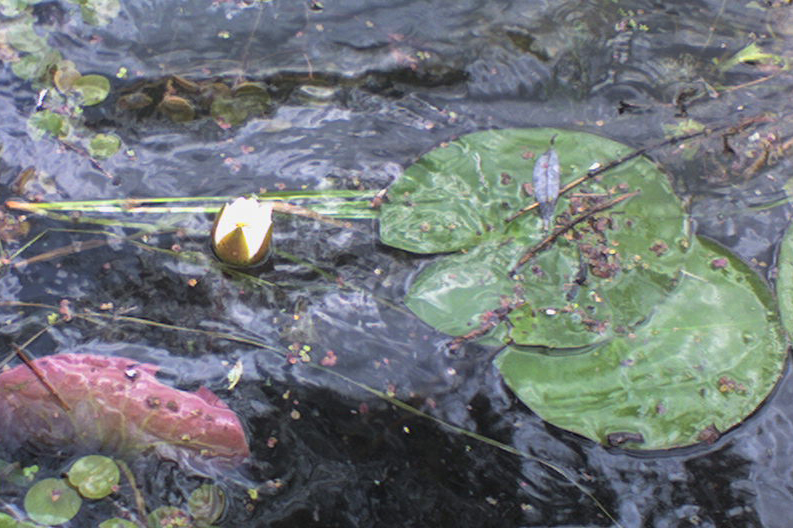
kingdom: Plantae
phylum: Tracheophyta
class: Magnoliopsida
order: Nymphaeales
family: Nymphaeaceae
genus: Nymphaea
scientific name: Nymphaea candida
